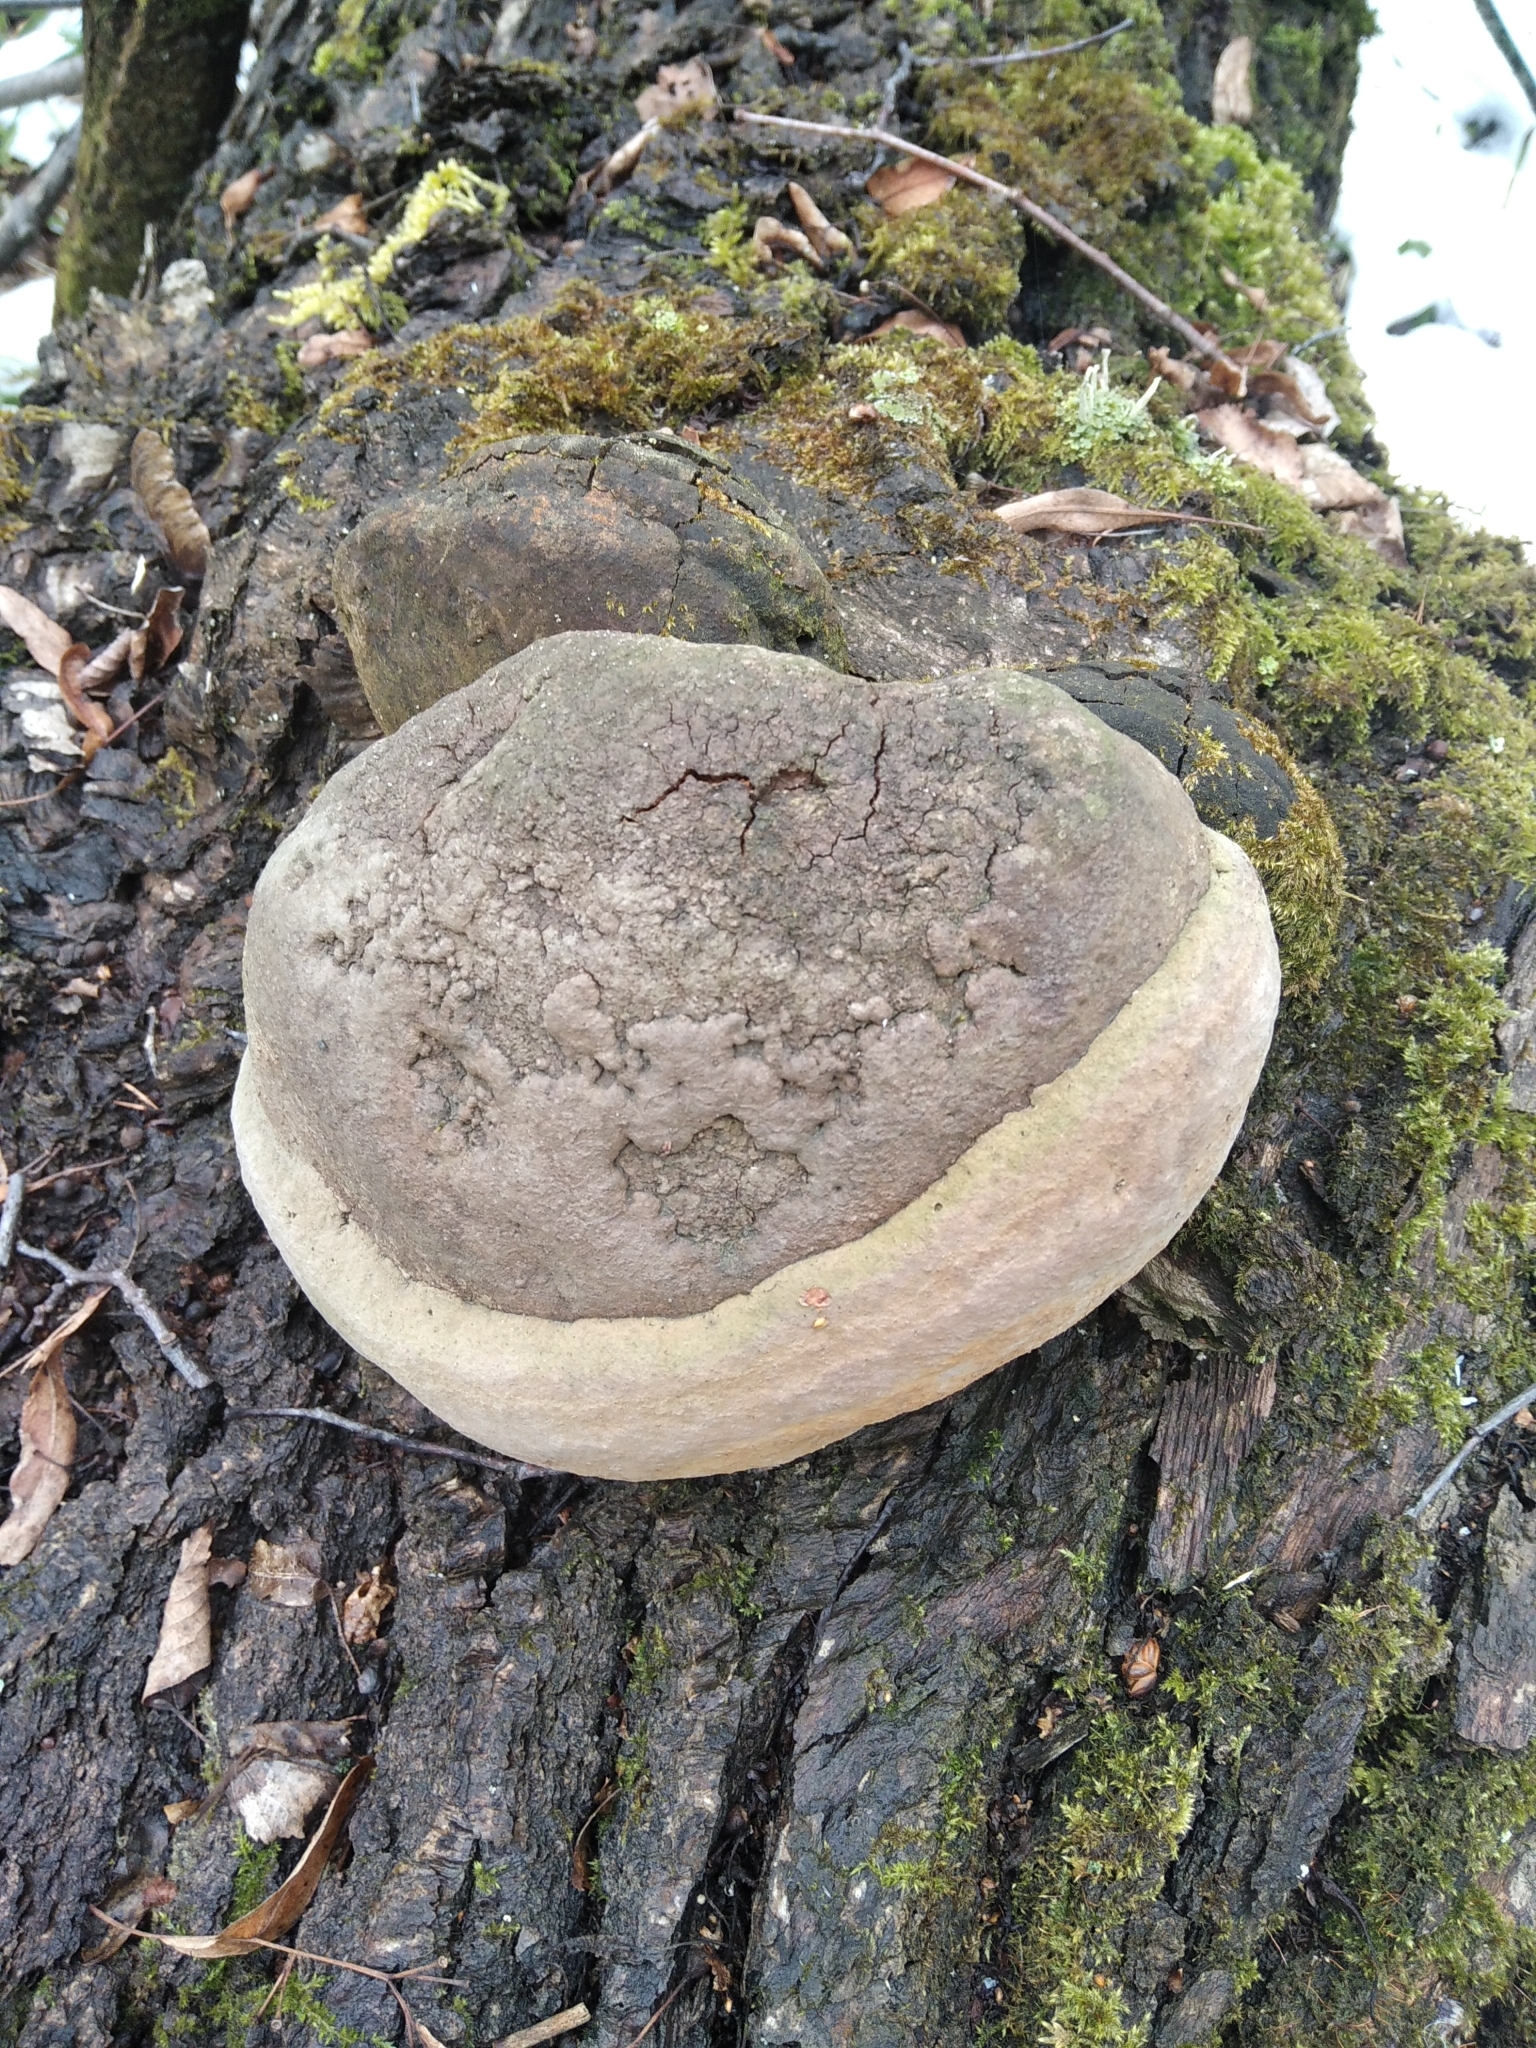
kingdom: Fungi
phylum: Basidiomycota
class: Agaricomycetes
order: Polyporales
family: Polyporaceae
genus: Fomes
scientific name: Fomes fomentarius
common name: Hoof fungus
